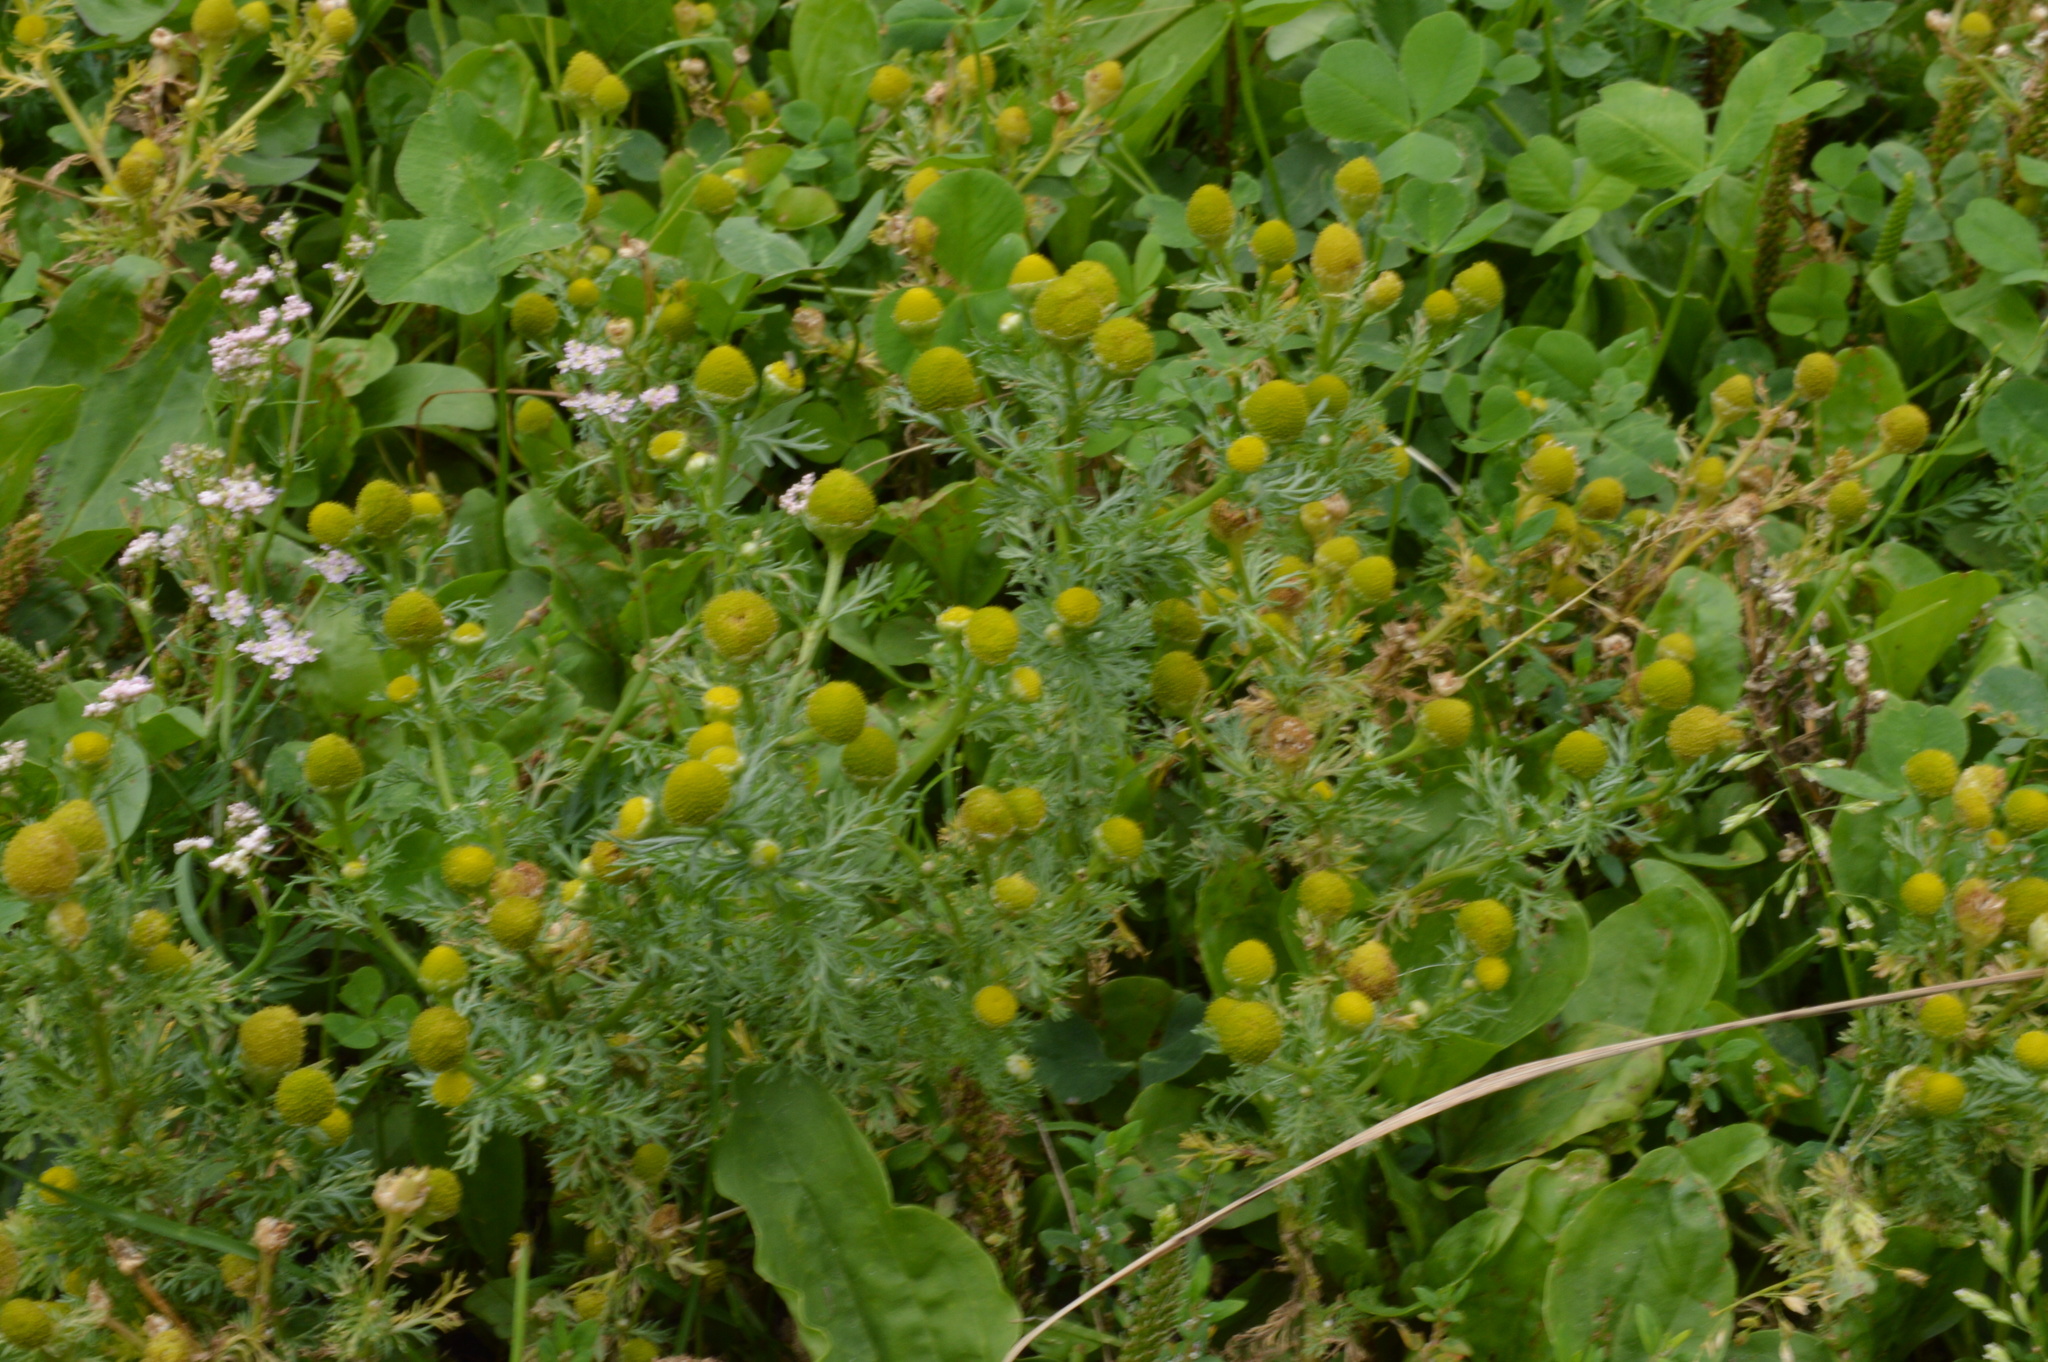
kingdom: Plantae
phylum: Tracheophyta
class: Magnoliopsida
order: Asterales
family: Asteraceae
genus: Matricaria
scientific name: Matricaria discoidea
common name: Disc mayweed
